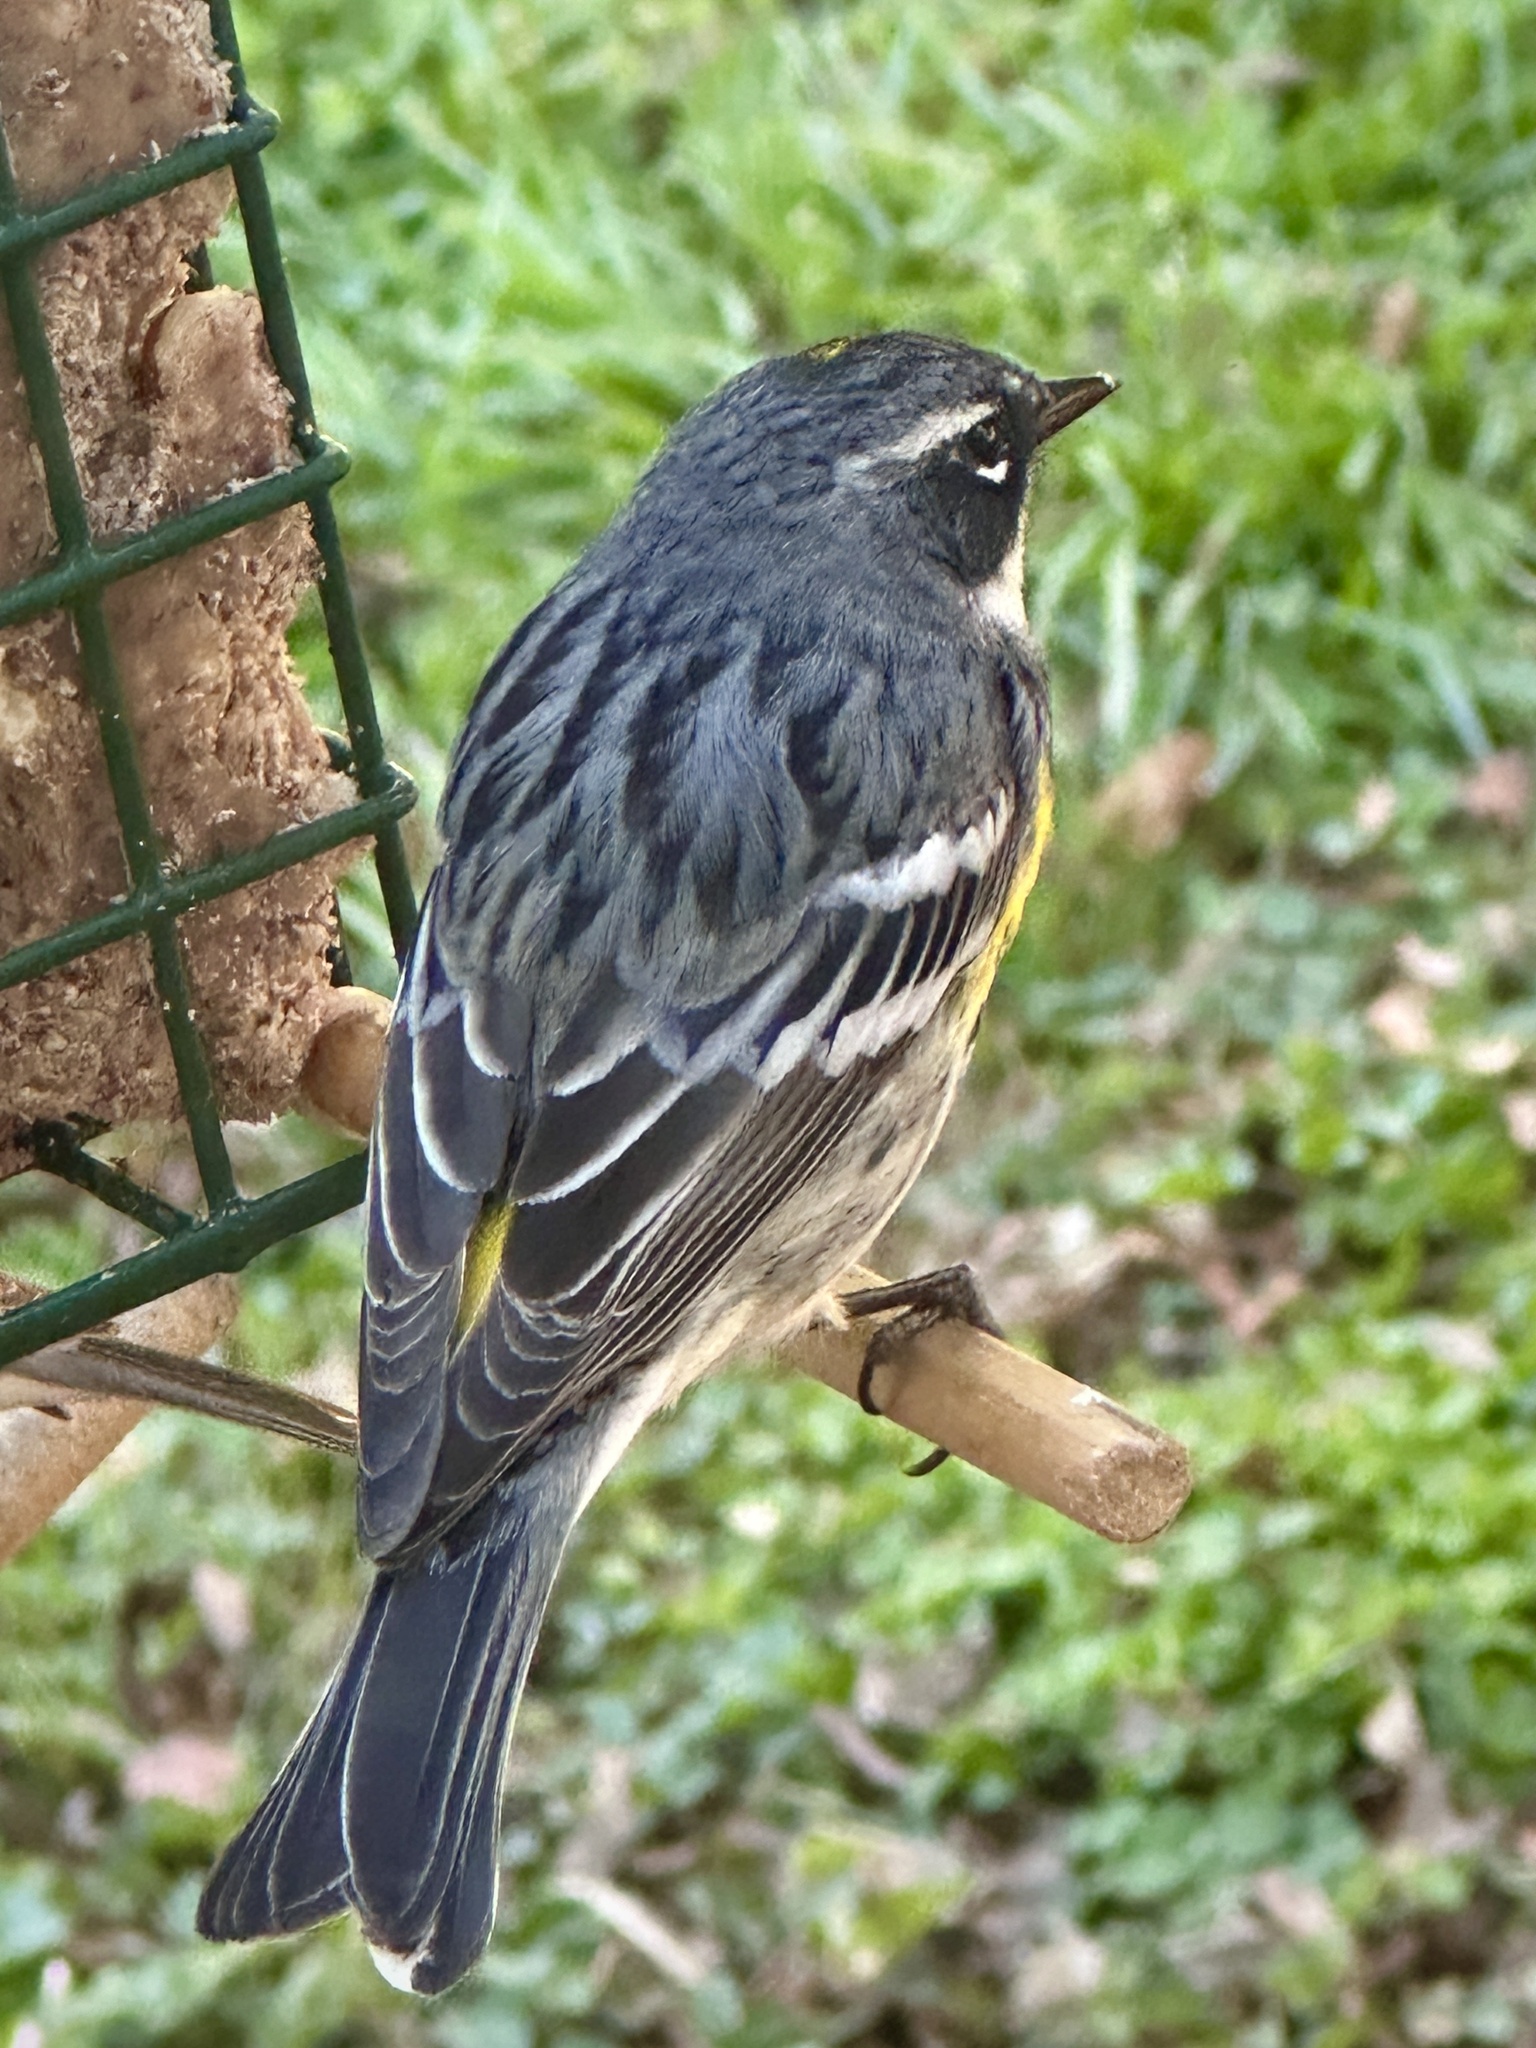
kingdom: Animalia
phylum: Chordata
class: Aves
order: Passeriformes
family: Parulidae
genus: Setophaga
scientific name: Setophaga coronata
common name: Myrtle warbler
